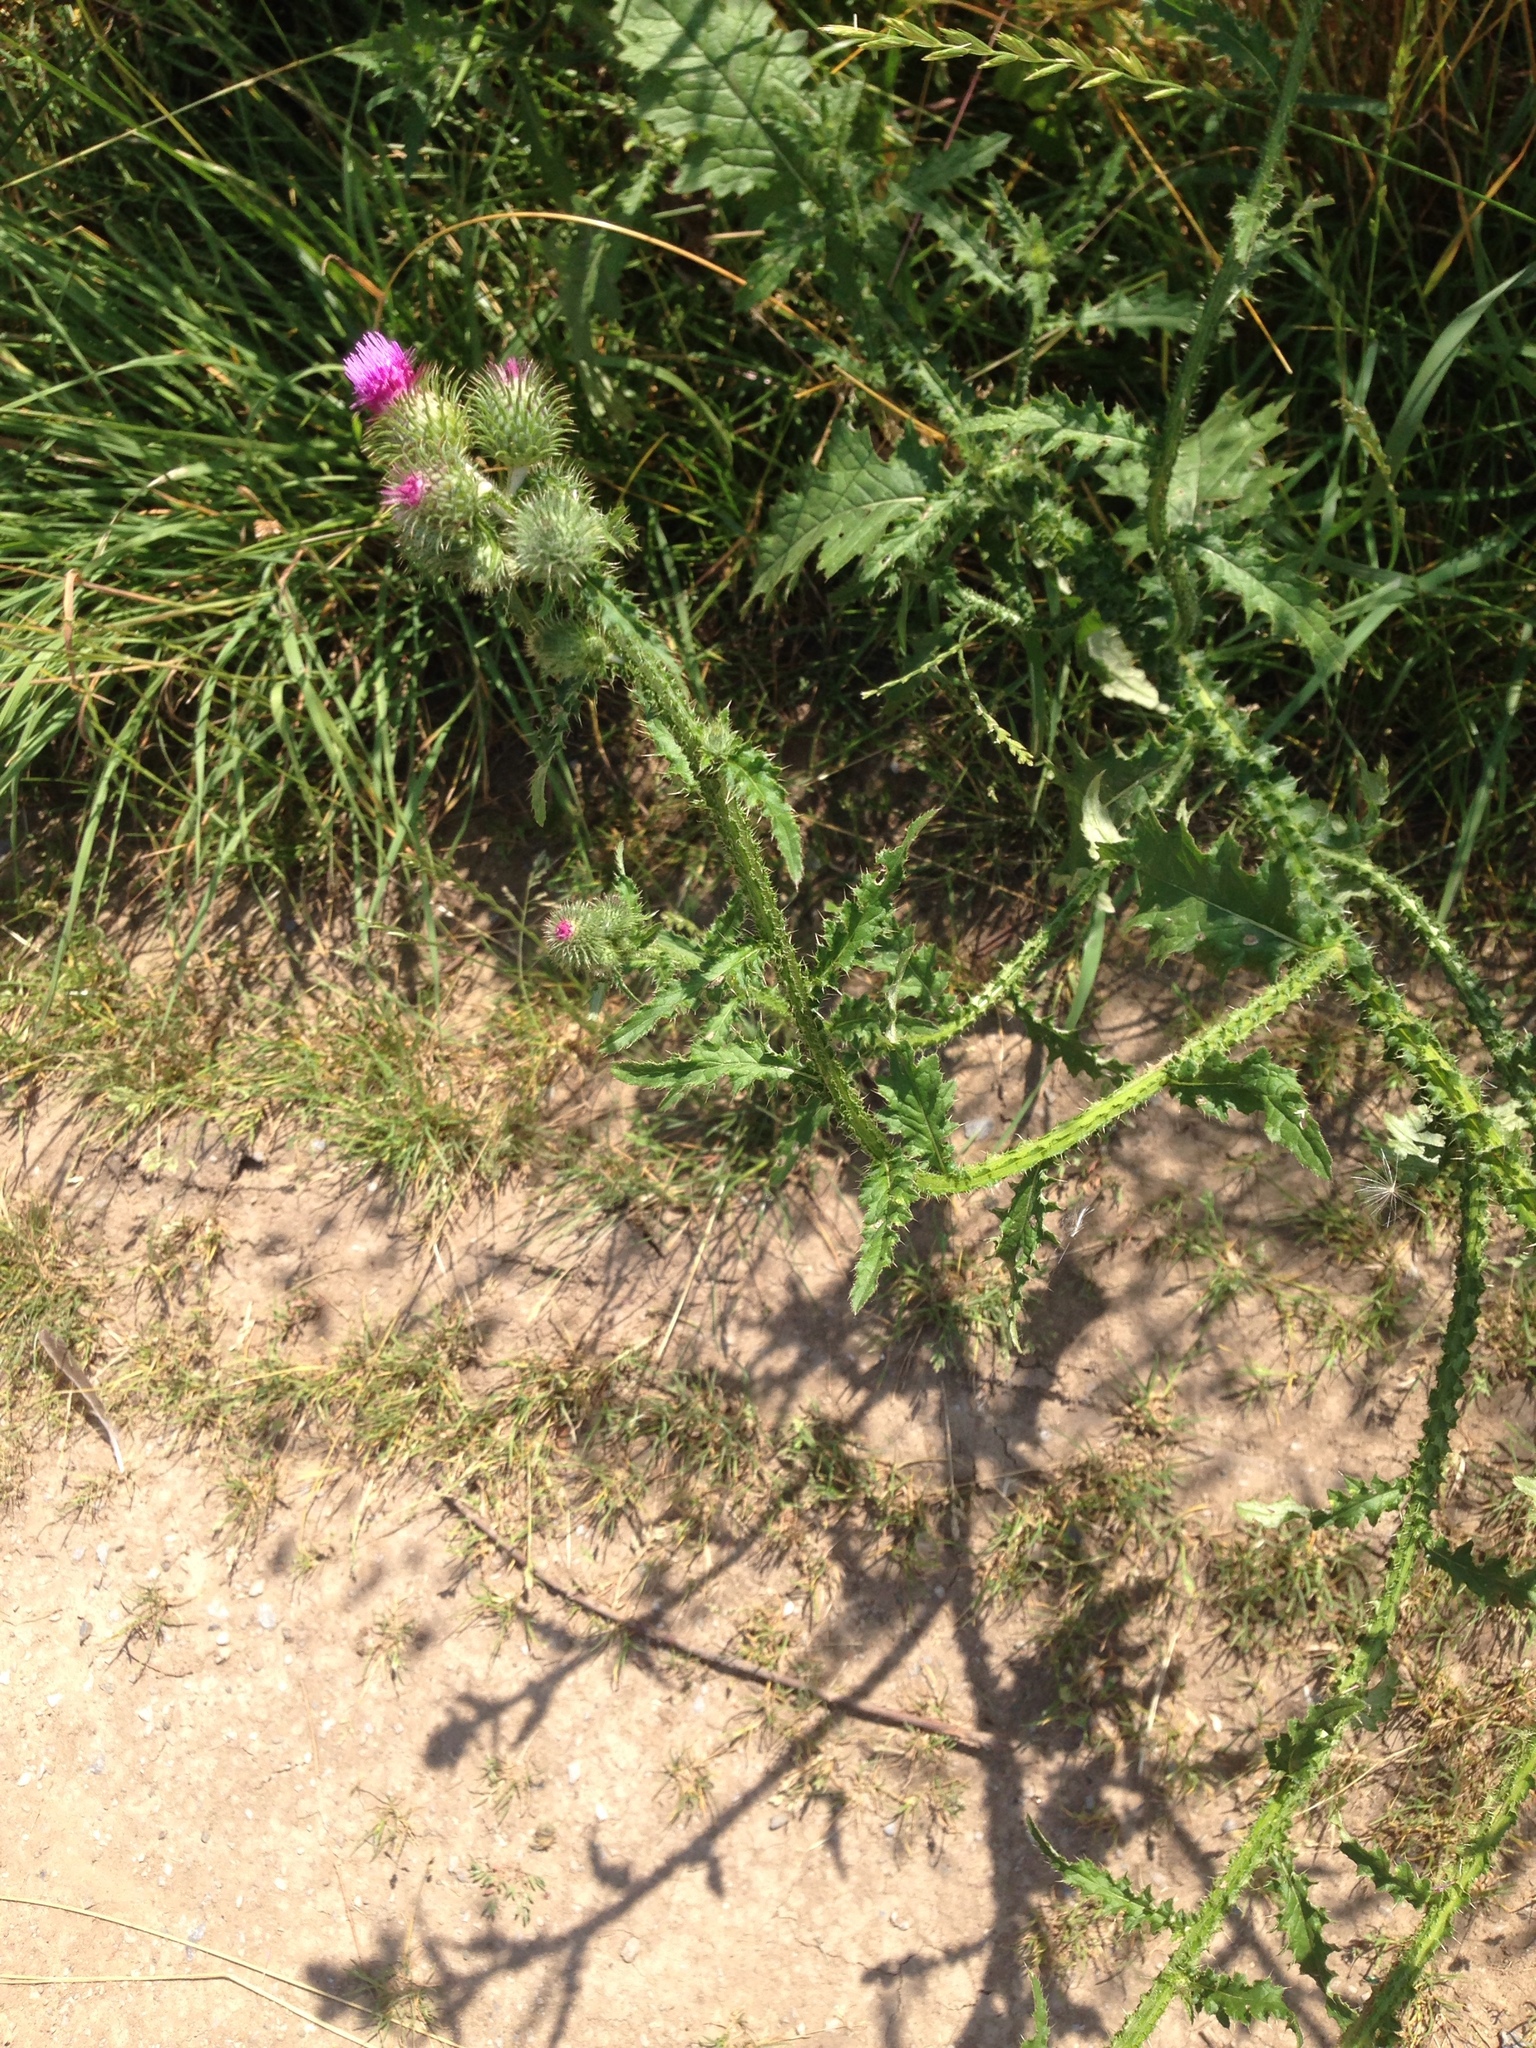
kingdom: Plantae
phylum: Tracheophyta
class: Magnoliopsida
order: Asterales
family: Asteraceae
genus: Carduus
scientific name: Carduus acanthoides
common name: Plumeless thistle
